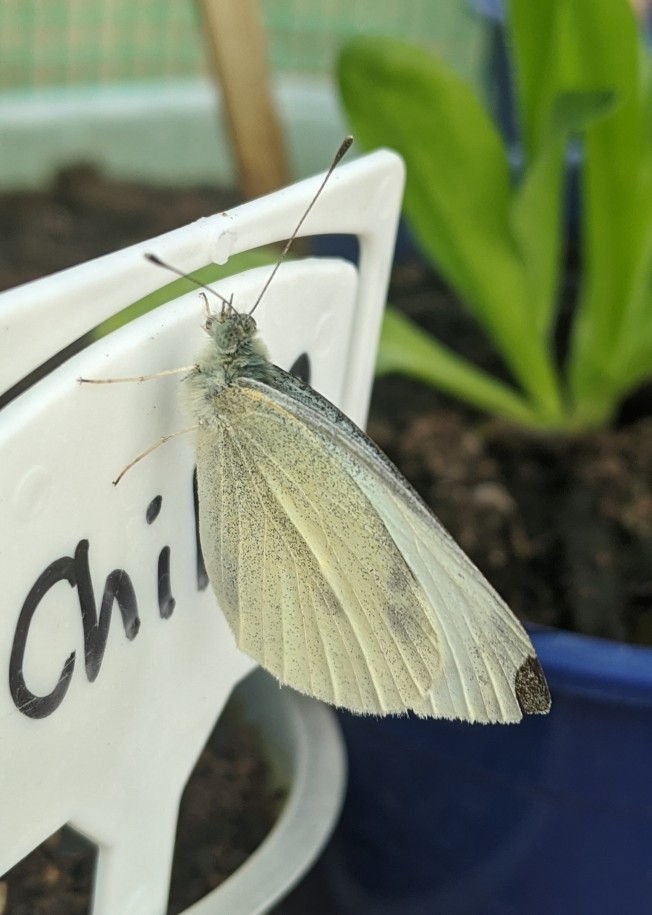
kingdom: Animalia
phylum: Arthropoda
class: Insecta
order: Lepidoptera
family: Pieridae
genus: Pieris
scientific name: Pieris rapae
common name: Small white
